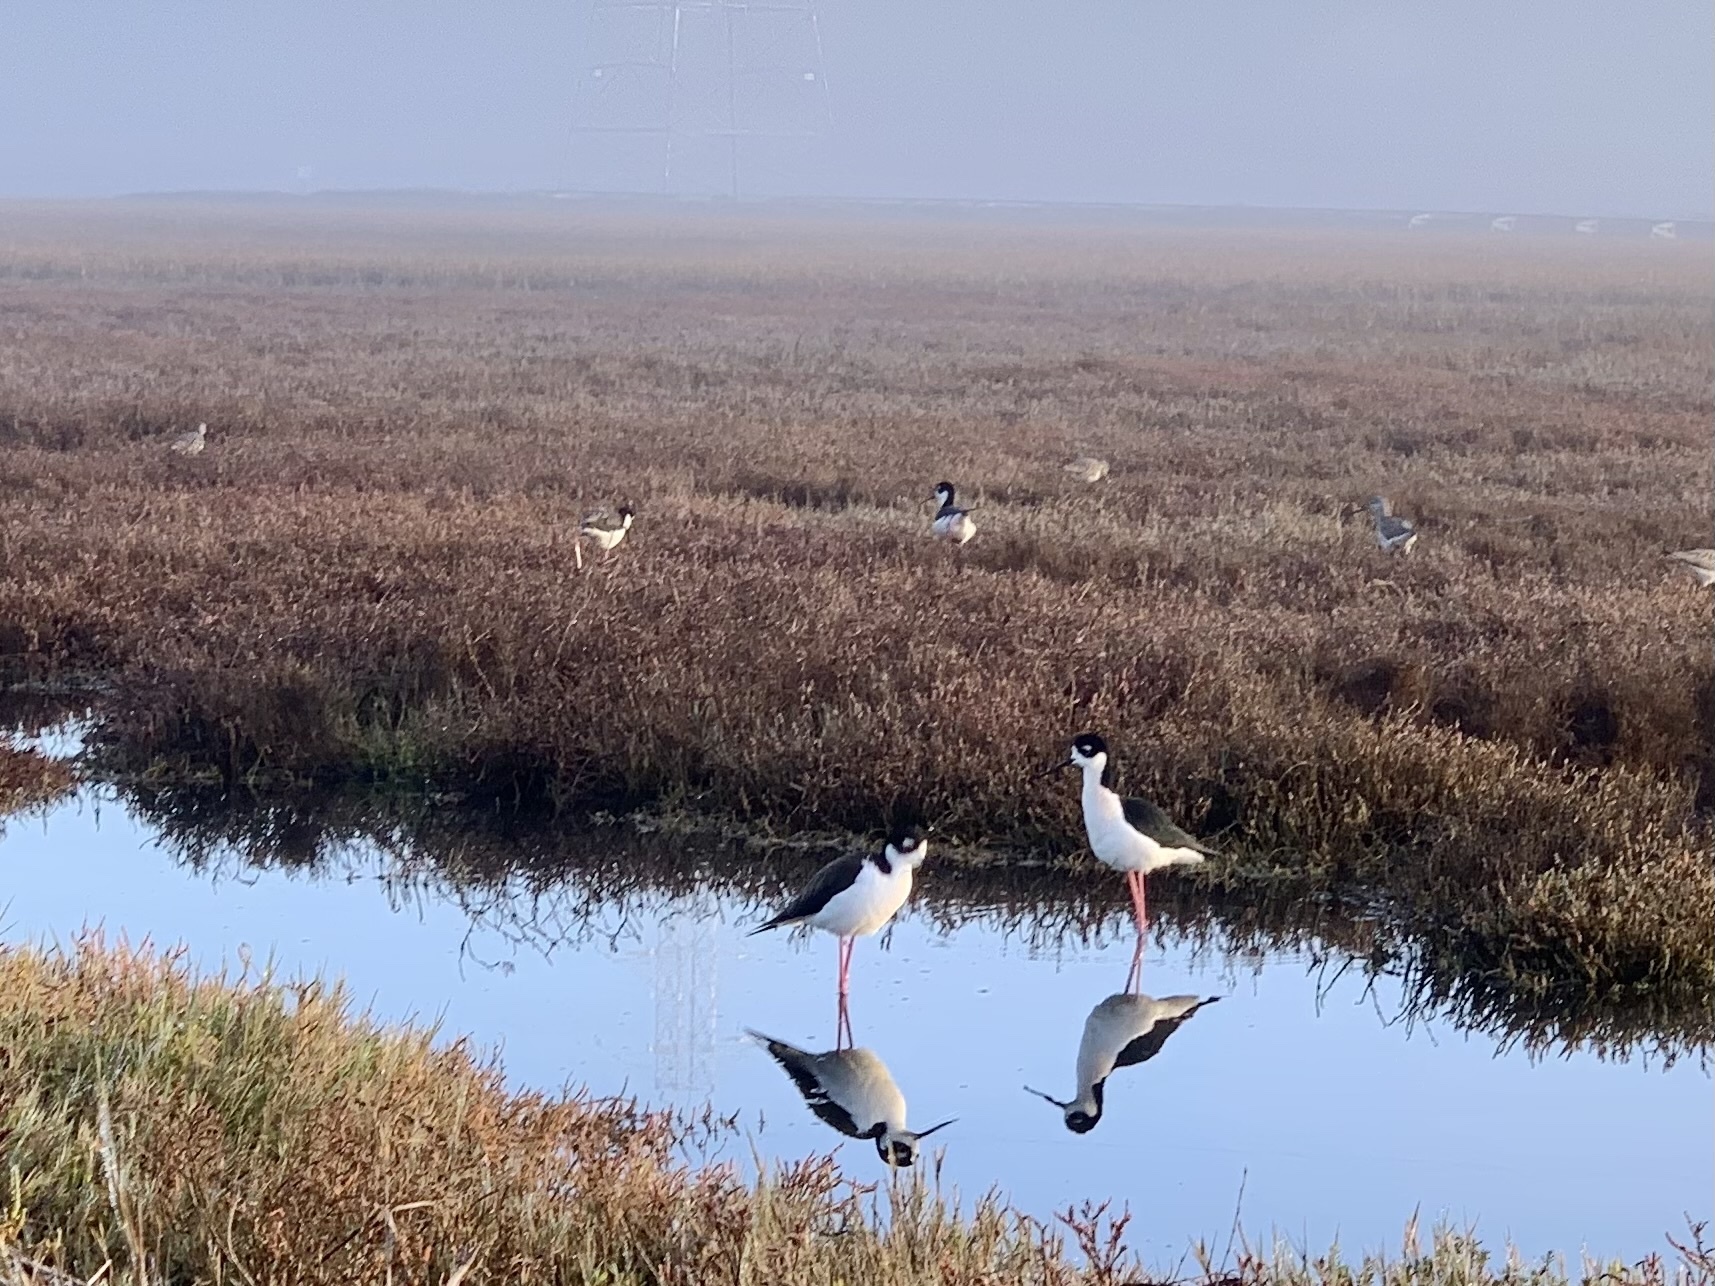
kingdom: Animalia
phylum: Chordata
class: Aves
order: Charadriiformes
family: Recurvirostridae
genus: Himantopus
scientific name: Himantopus mexicanus
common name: Black-necked stilt
